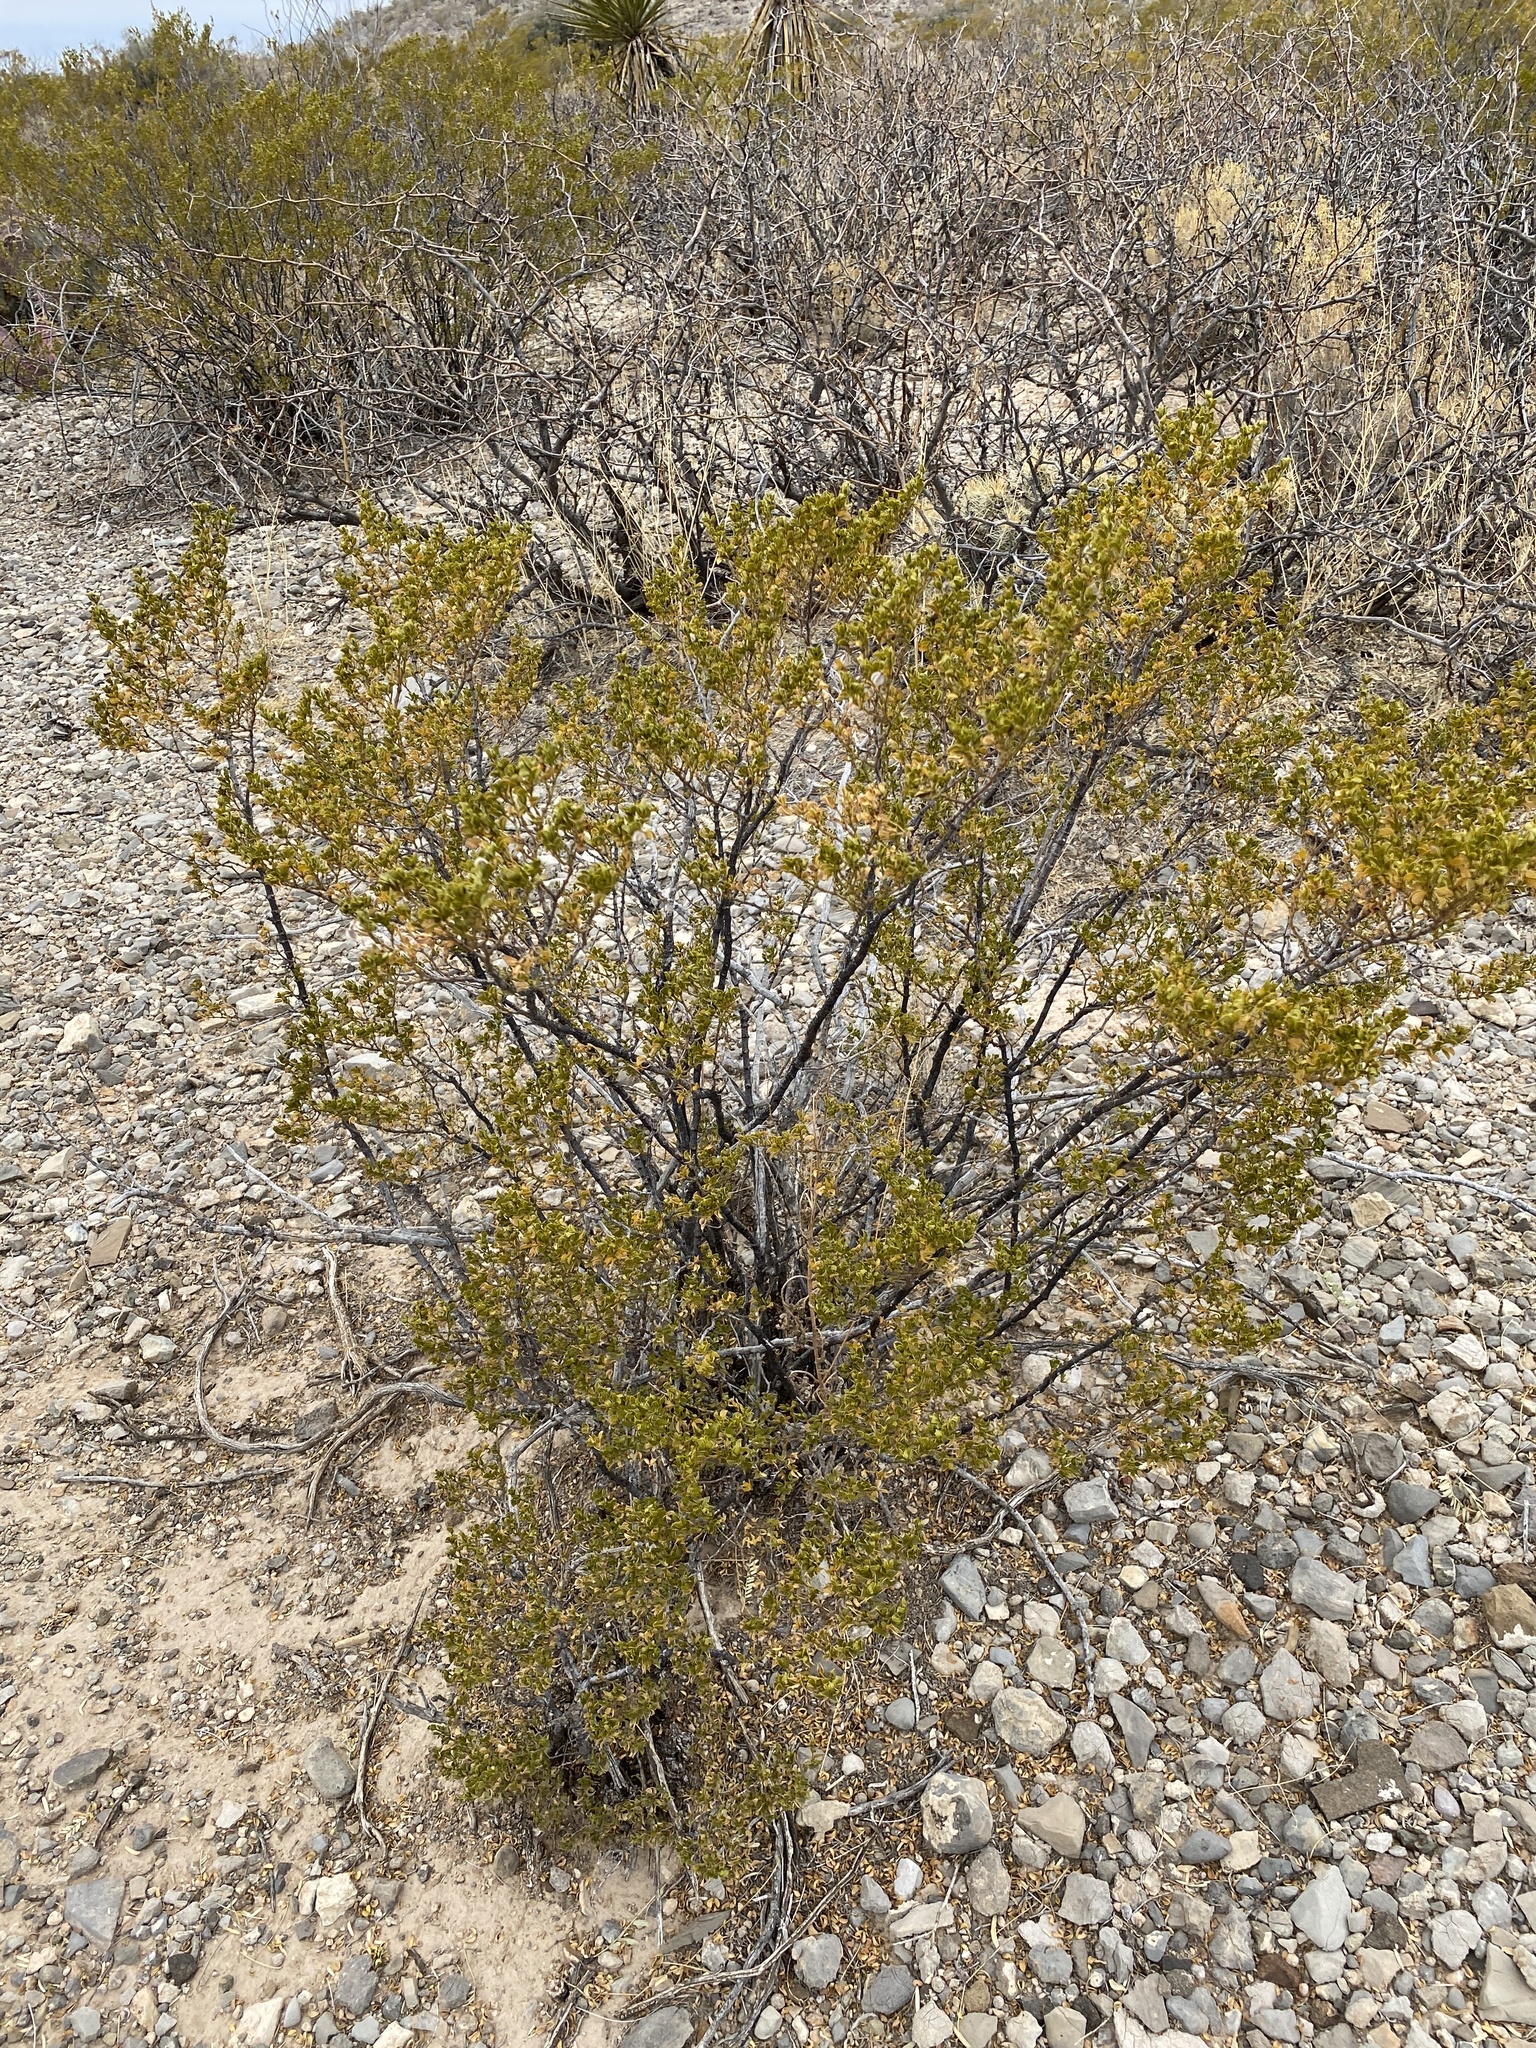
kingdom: Plantae
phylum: Tracheophyta
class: Magnoliopsida
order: Zygophyllales
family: Zygophyllaceae
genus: Larrea
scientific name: Larrea tridentata
